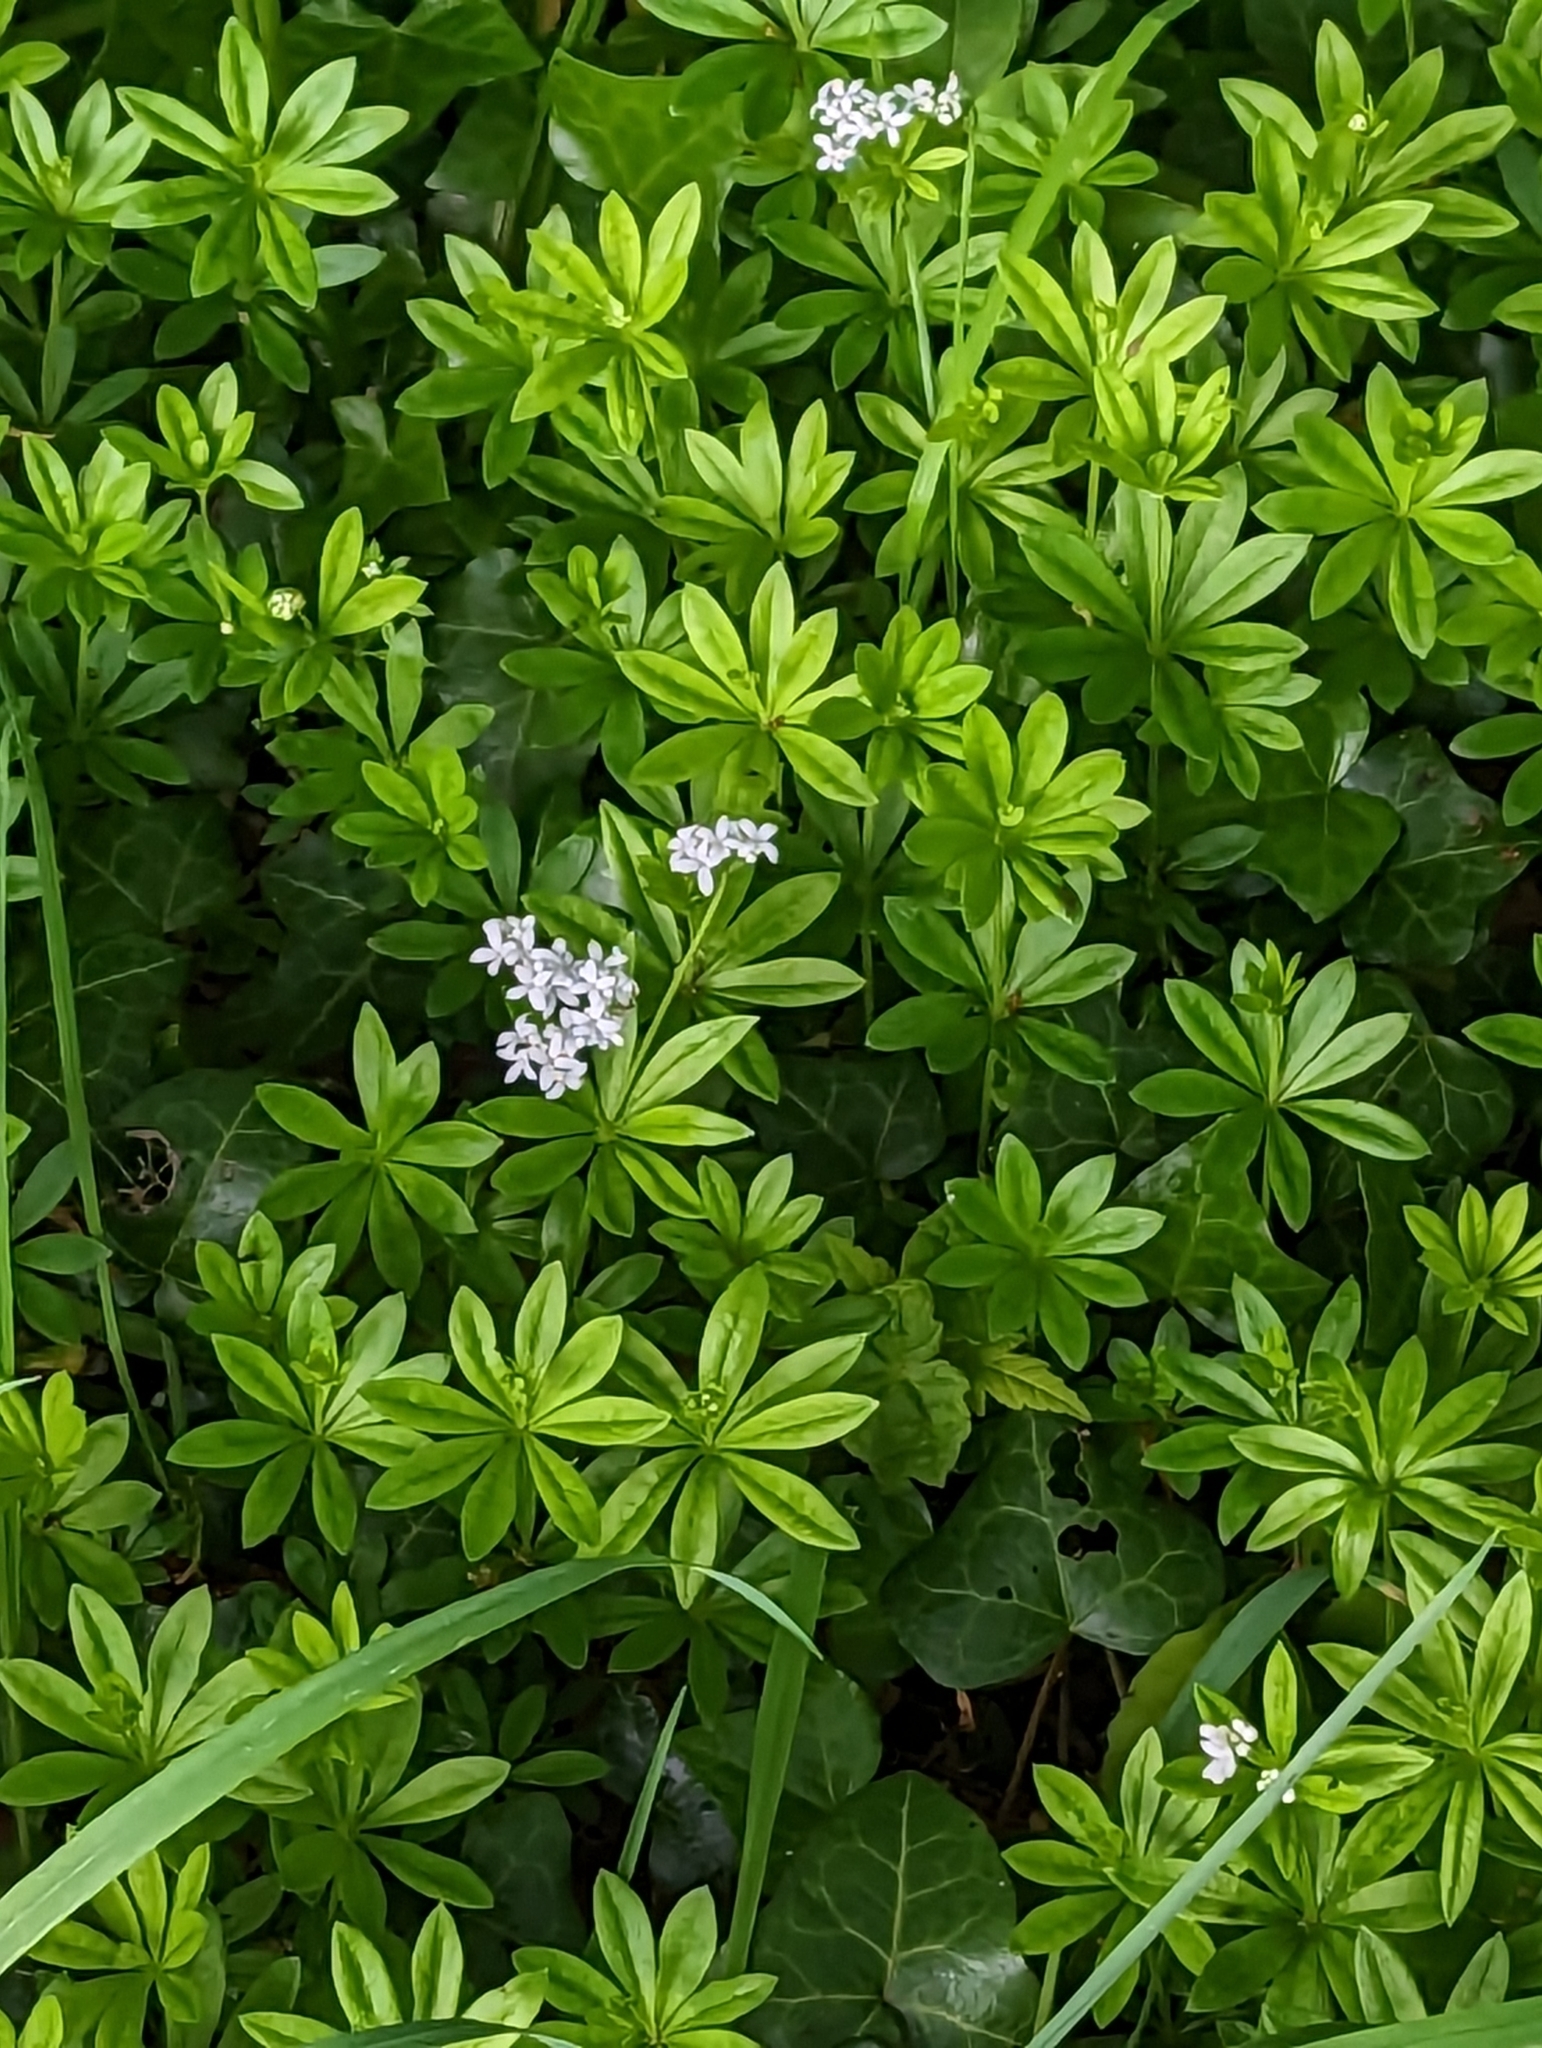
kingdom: Plantae
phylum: Tracheophyta
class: Magnoliopsida
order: Gentianales
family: Rubiaceae
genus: Galium
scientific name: Galium odoratum
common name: Sweet woodruff
